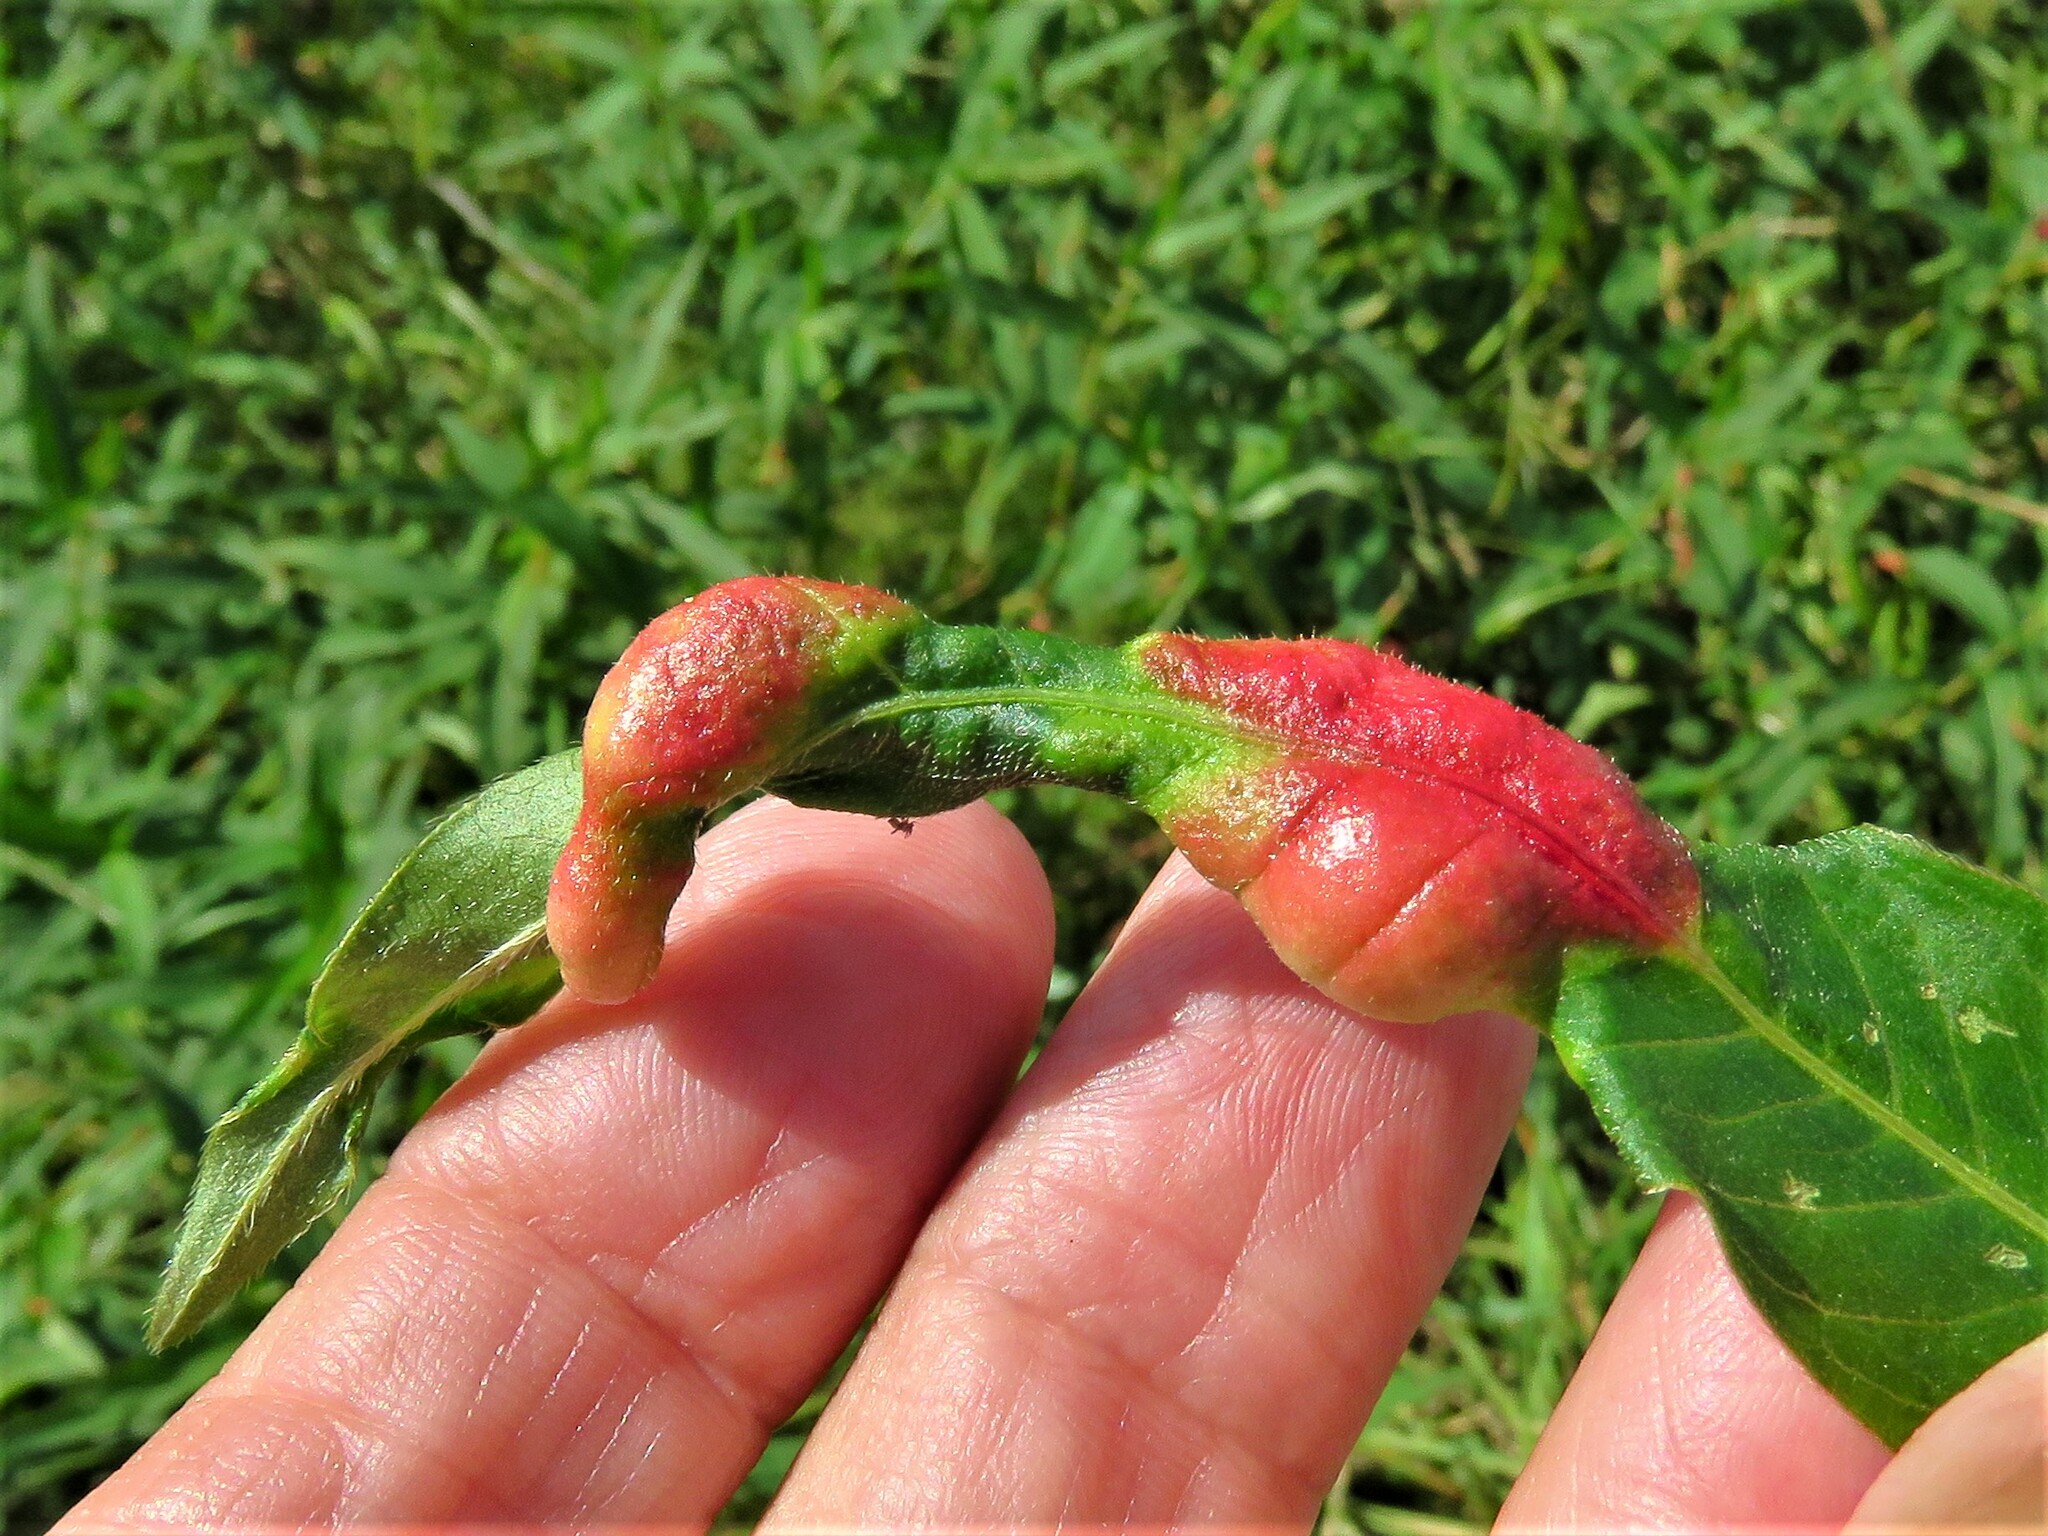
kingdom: Animalia
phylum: Arthropoda
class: Insecta
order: Diptera
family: Cecidomyiidae
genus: Wachtliella
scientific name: Wachtliella persicariae
